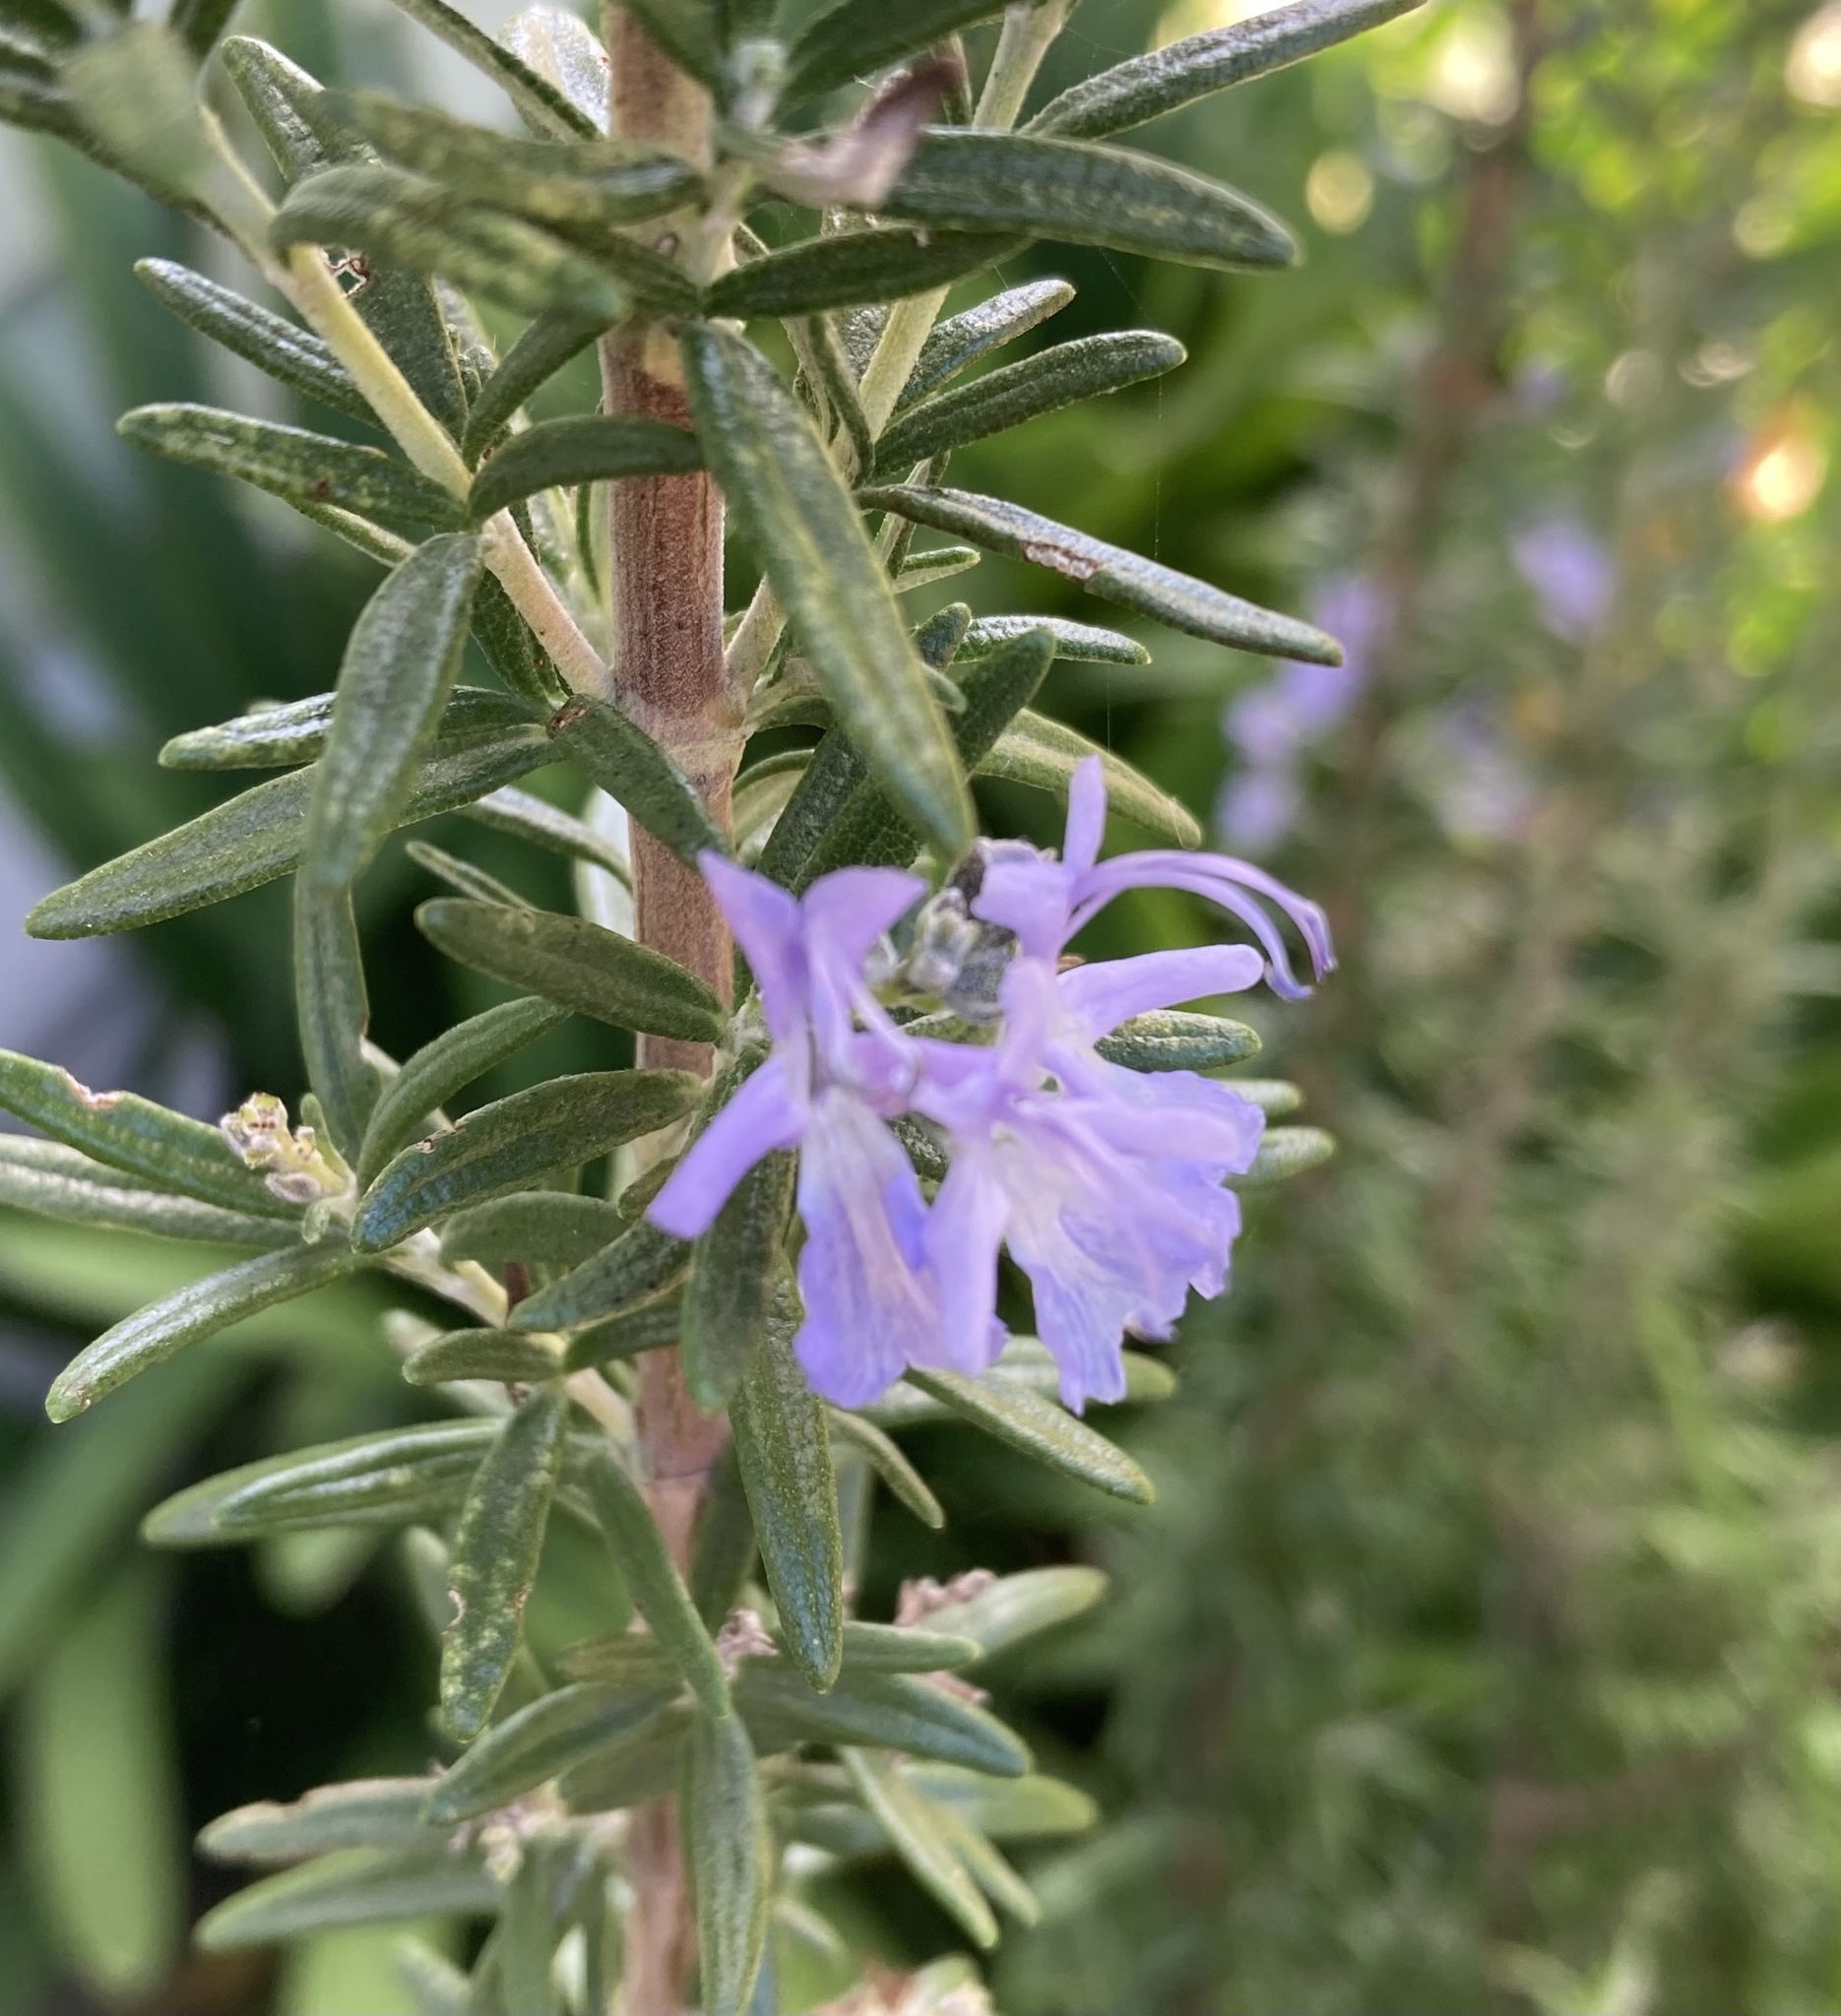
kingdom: Plantae
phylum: Tracheophyta
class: Magnoliopsida
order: Lamiales
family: Lamiaceae
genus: Salvia
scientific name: Salvia rosmarinus
